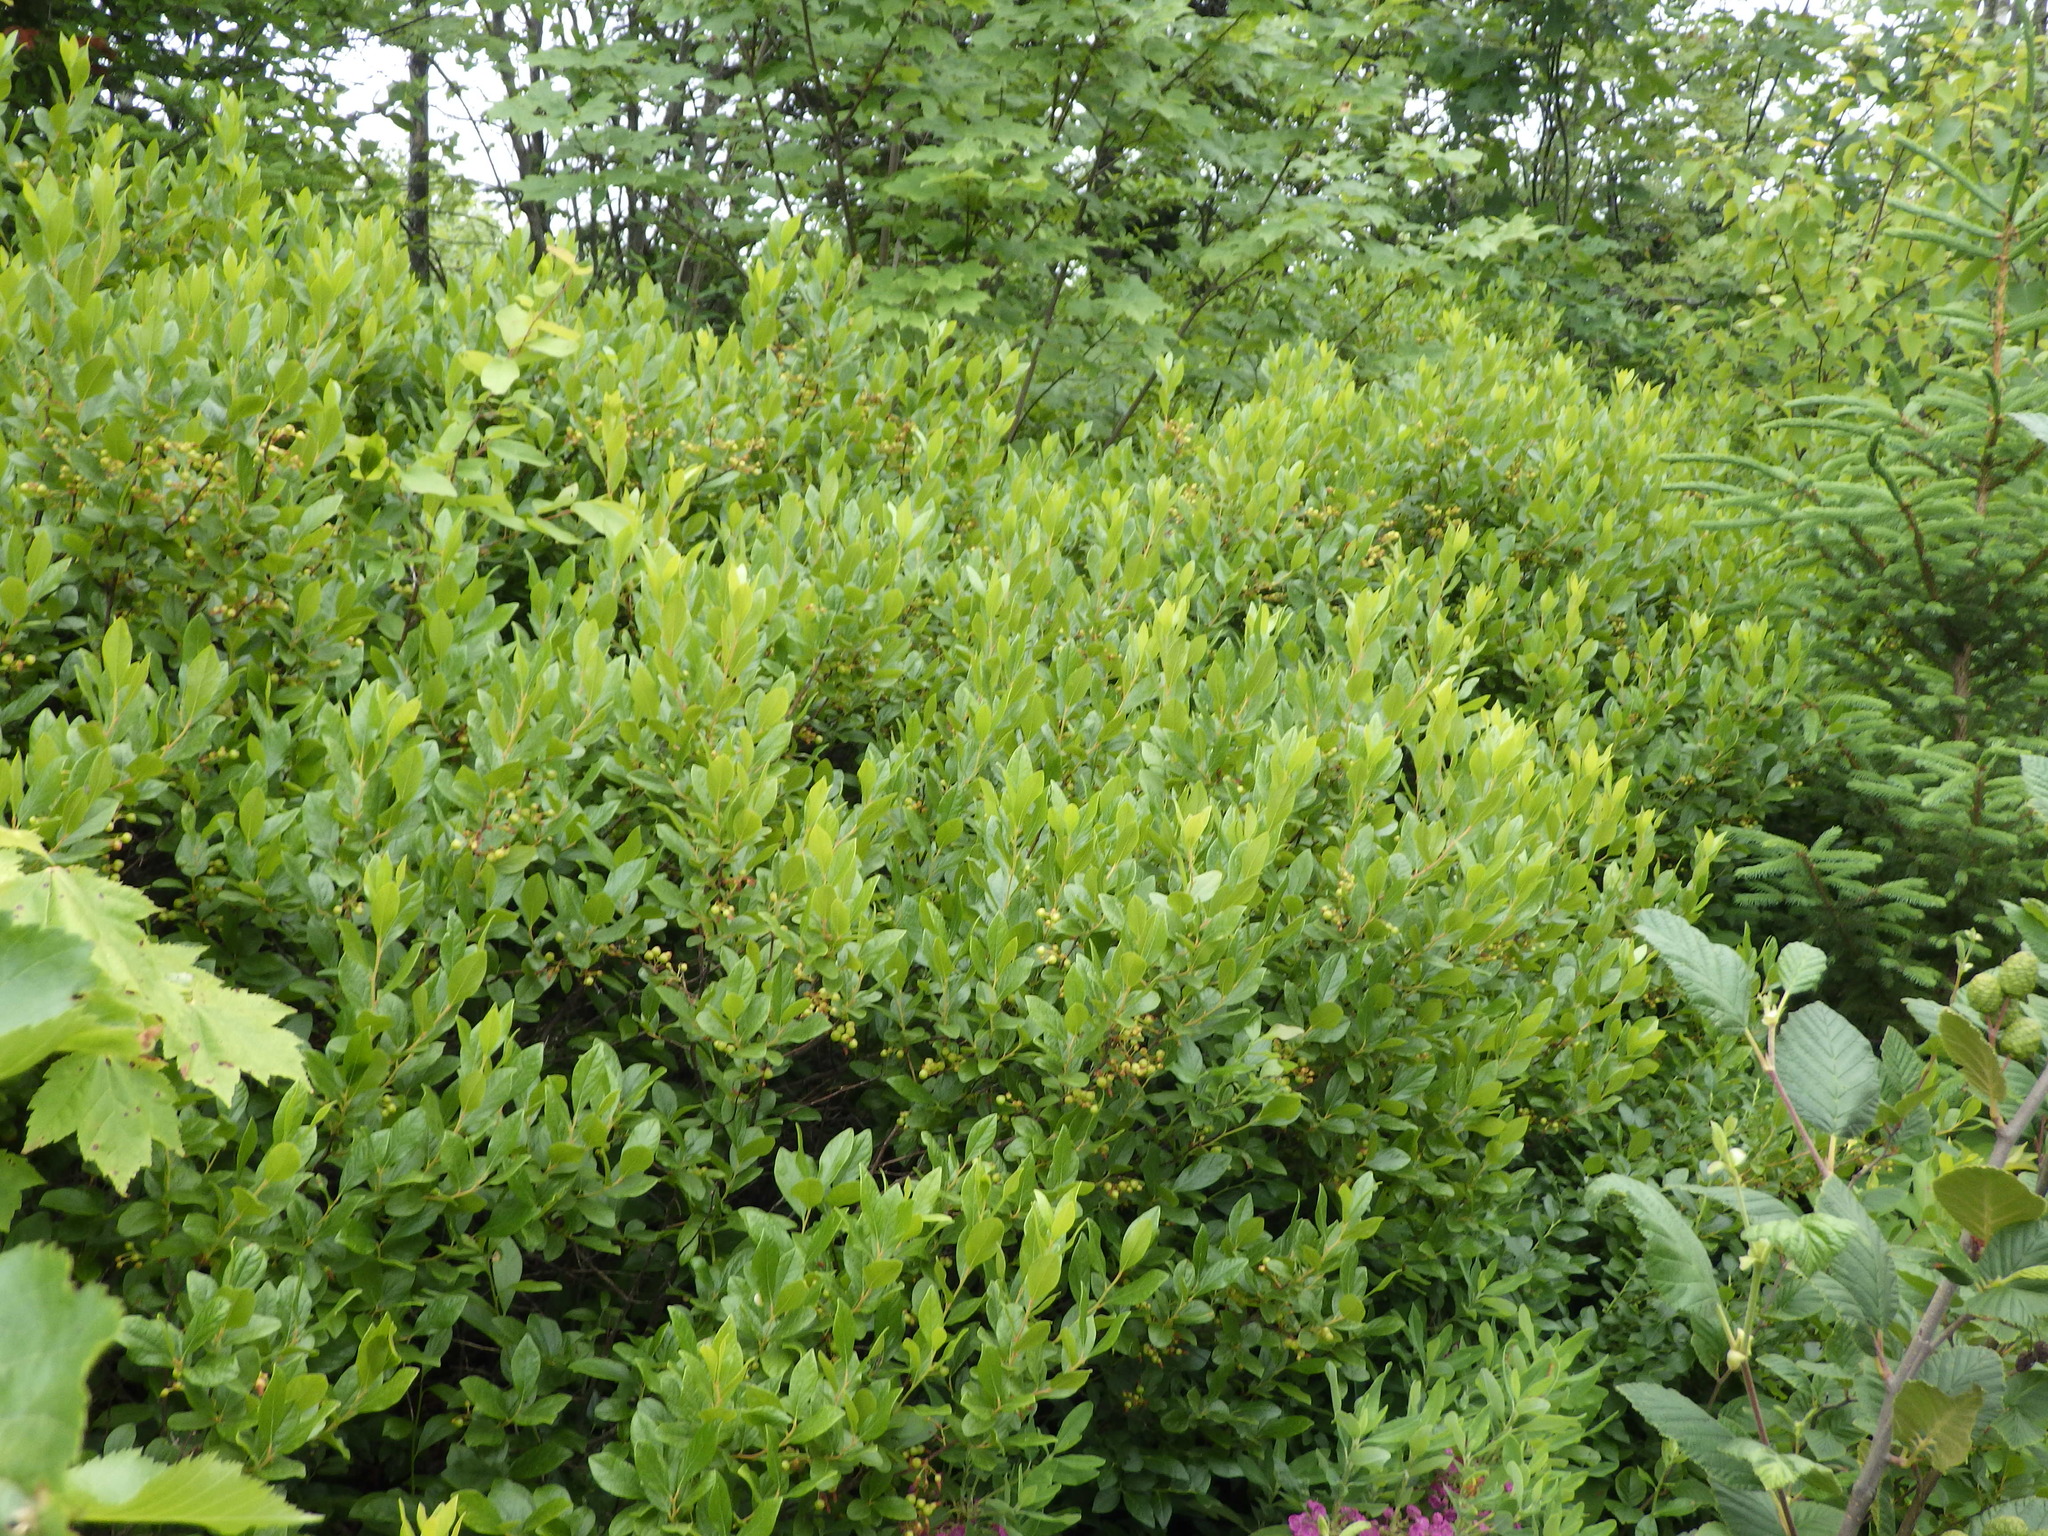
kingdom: Plantae
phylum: Tracheophyta
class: Magnoliopsida
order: Ericales
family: Ericaceae
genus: Gaylussacia
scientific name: Gaylussacia baccata
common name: Black huckleberry
